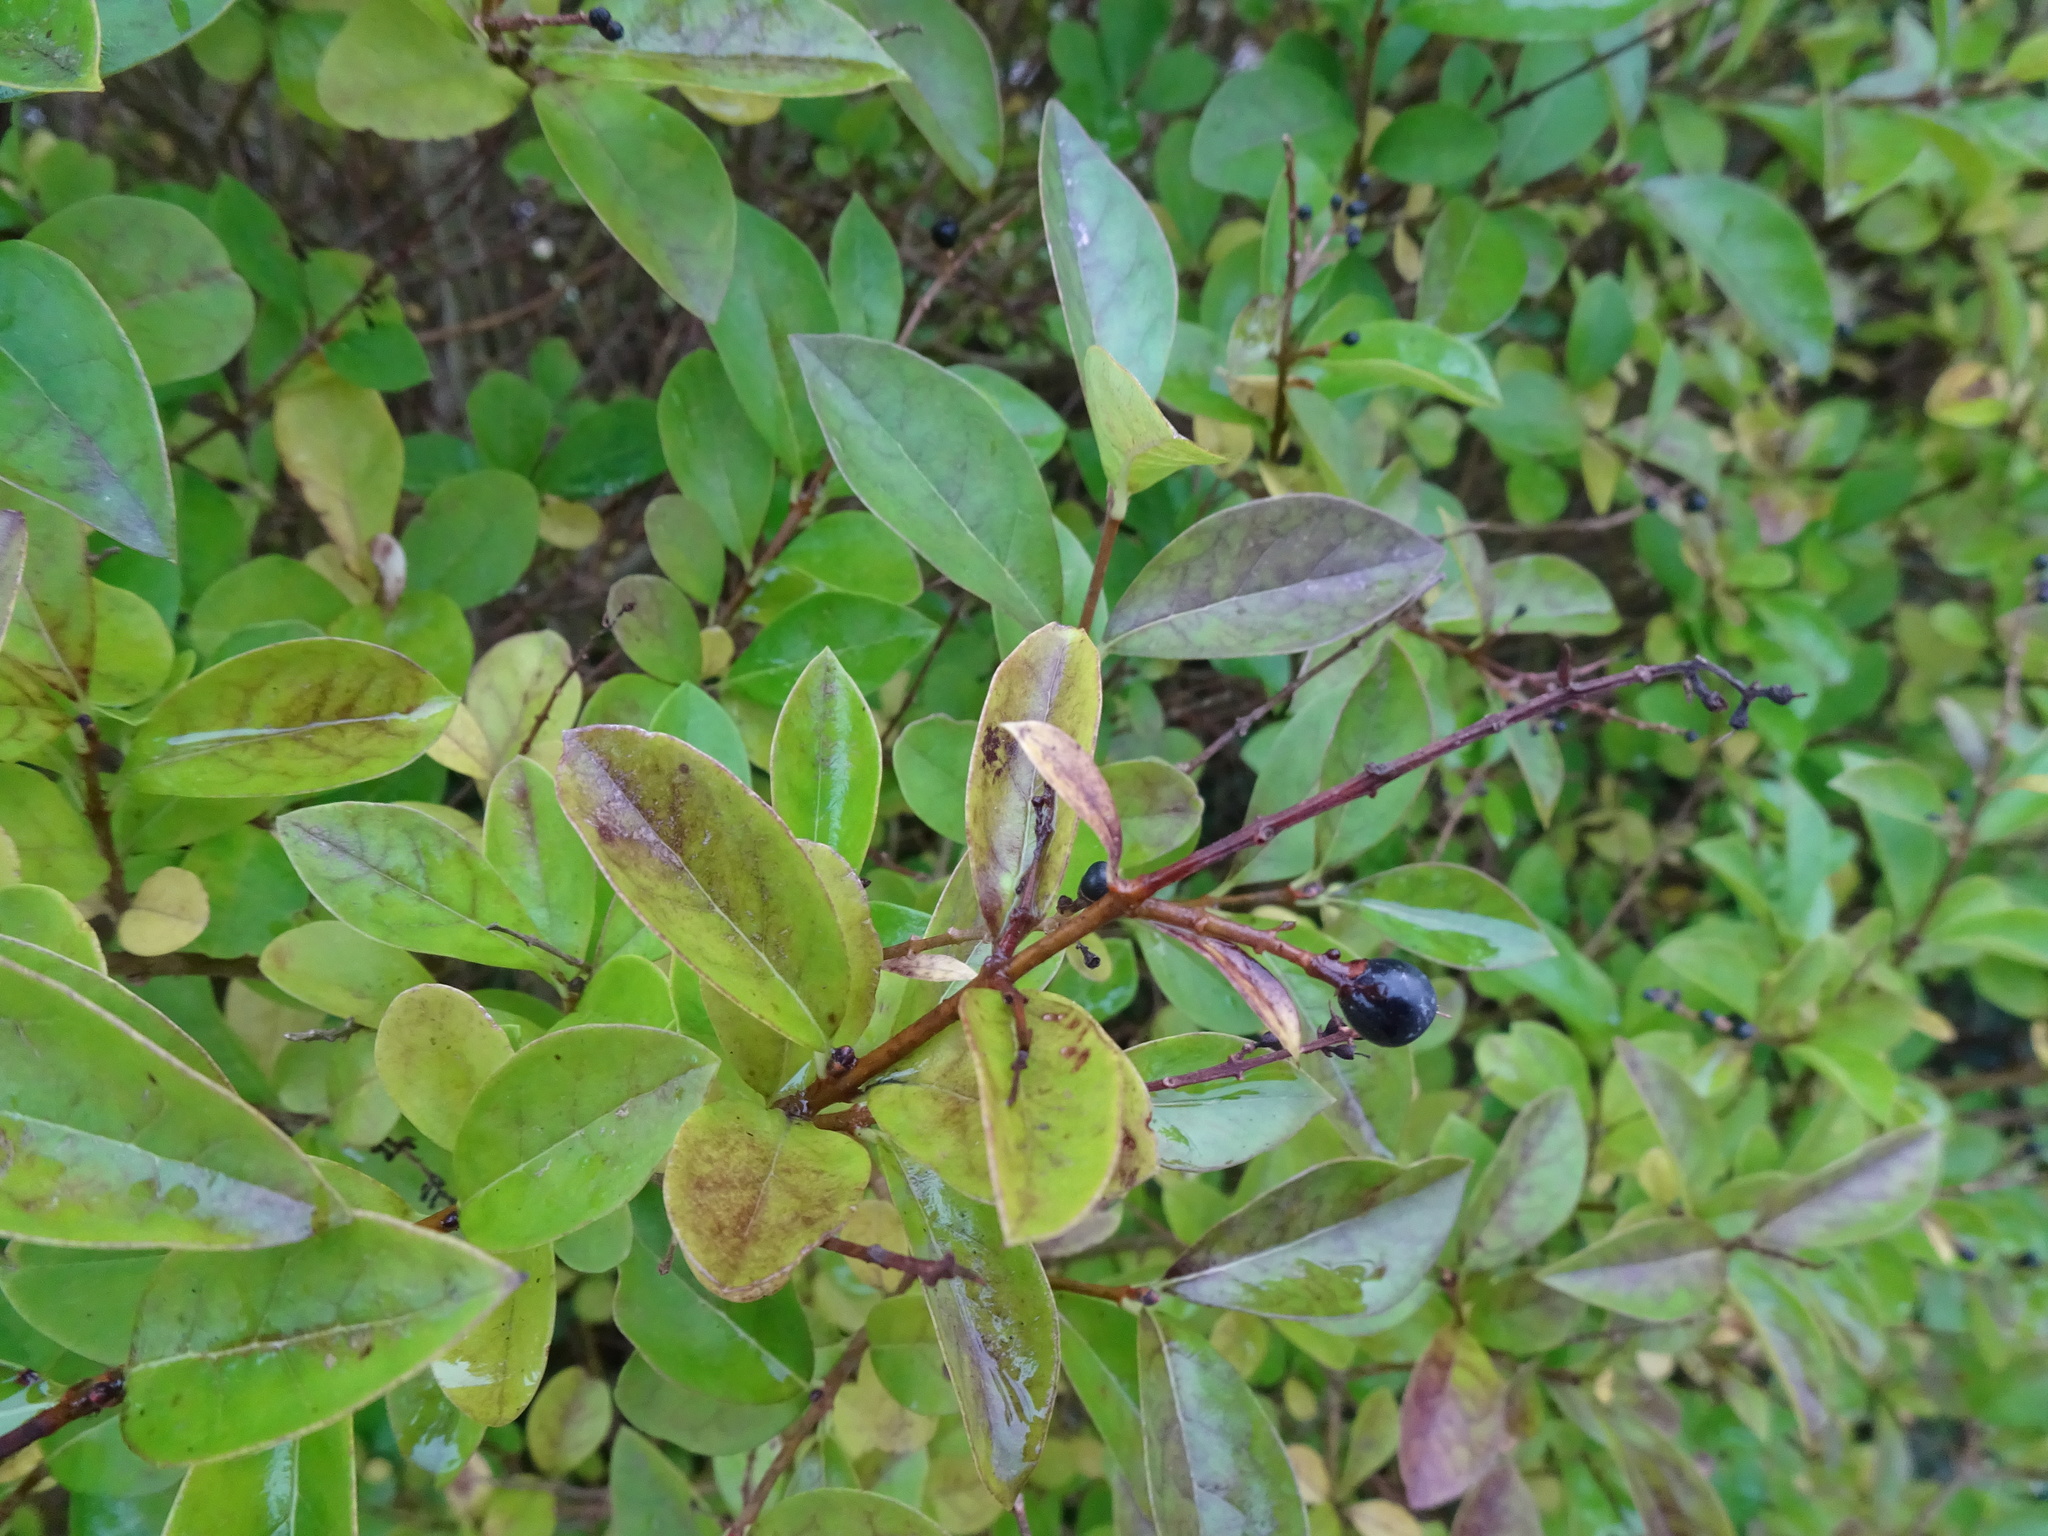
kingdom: Plantae
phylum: Tracheophyta
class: Magnoliopsida
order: Lamiales
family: Oleaceae
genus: Ligustrum
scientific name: Ligustrum vulgare
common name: Wild privet
